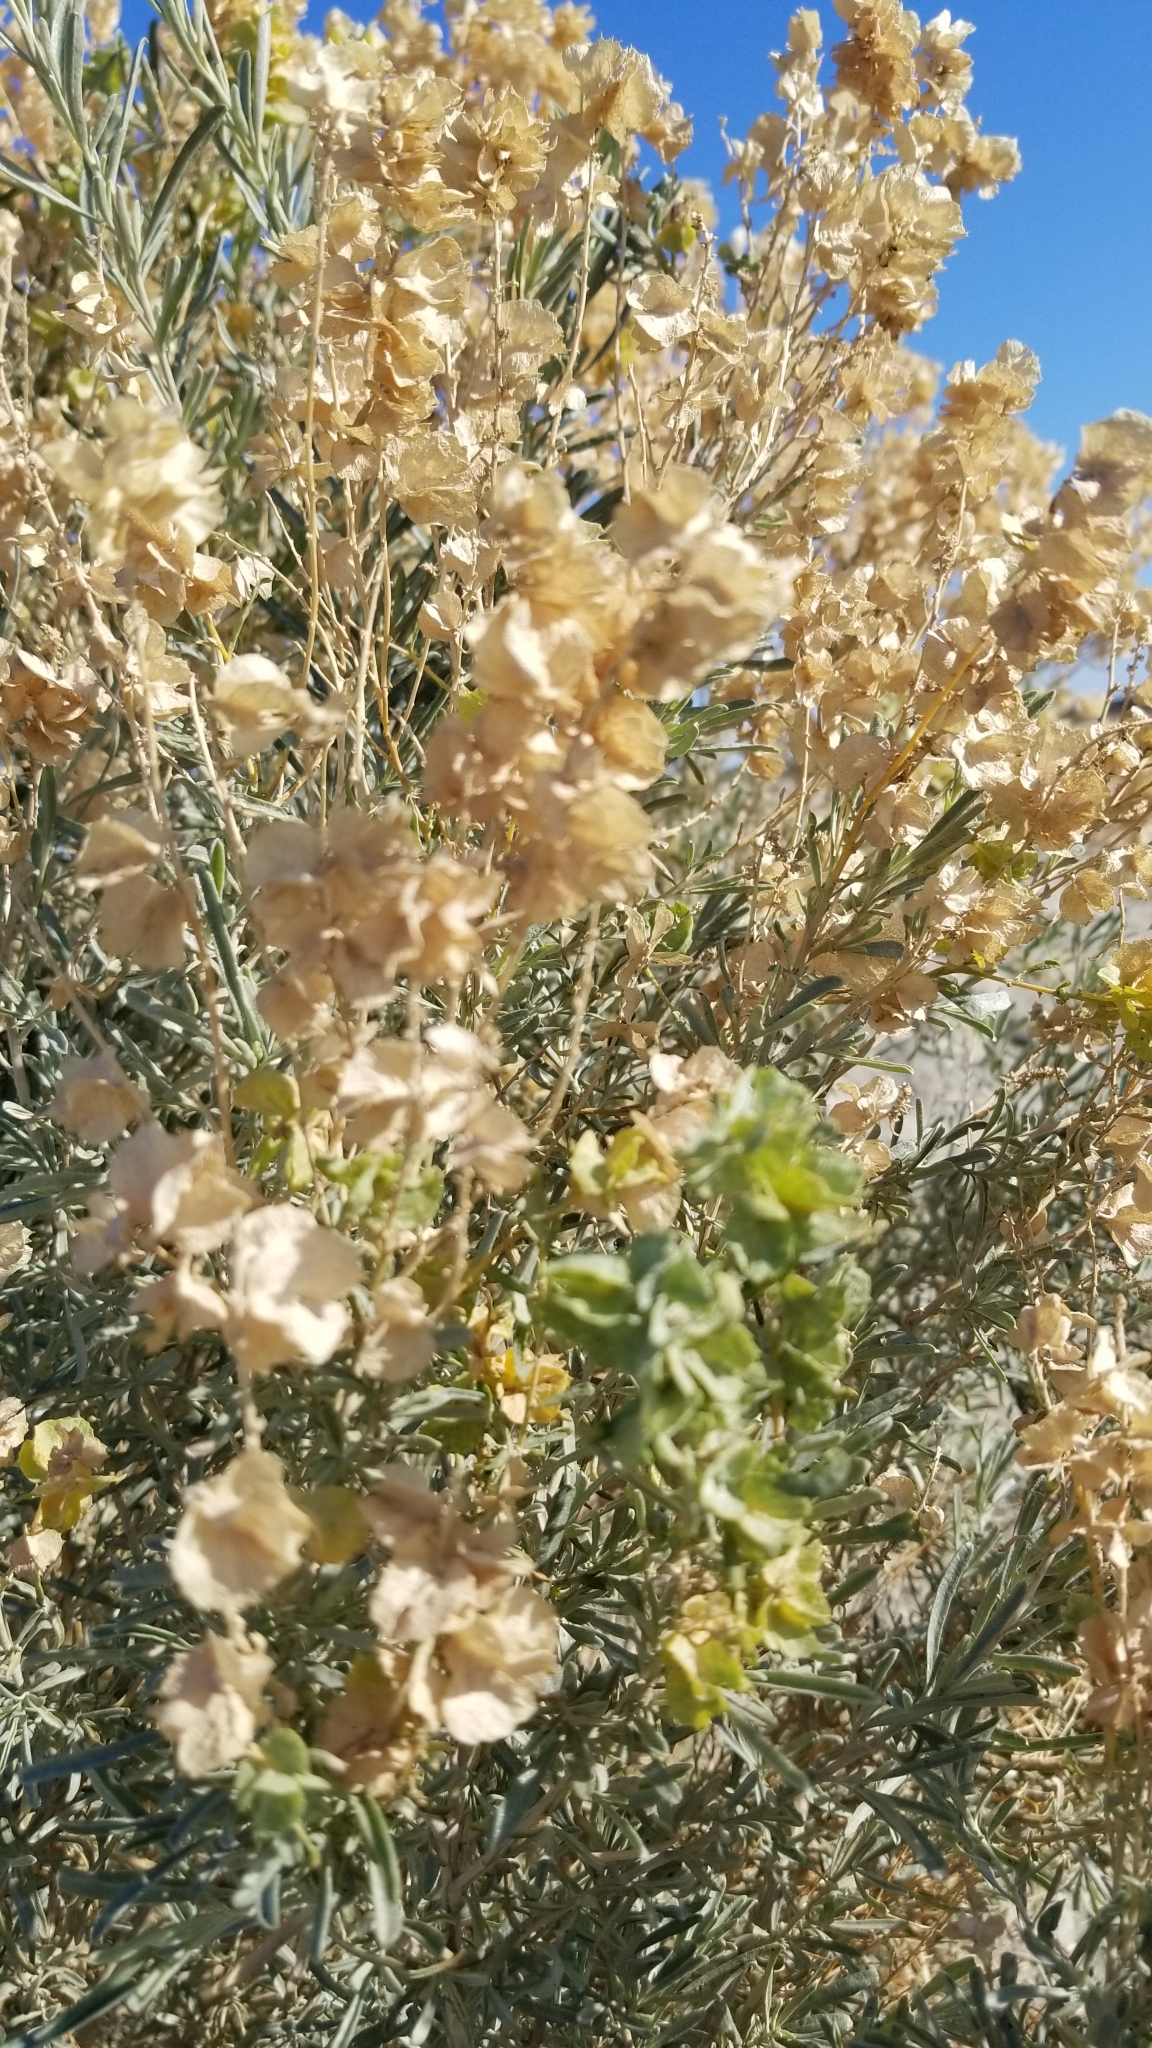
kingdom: Plantae
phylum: Tracheophyta
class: Magnoliopsida
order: Caryophyllales
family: Amaranthaceae
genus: Atriplex
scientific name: Atriplex canescens
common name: Four-wing saltbush
